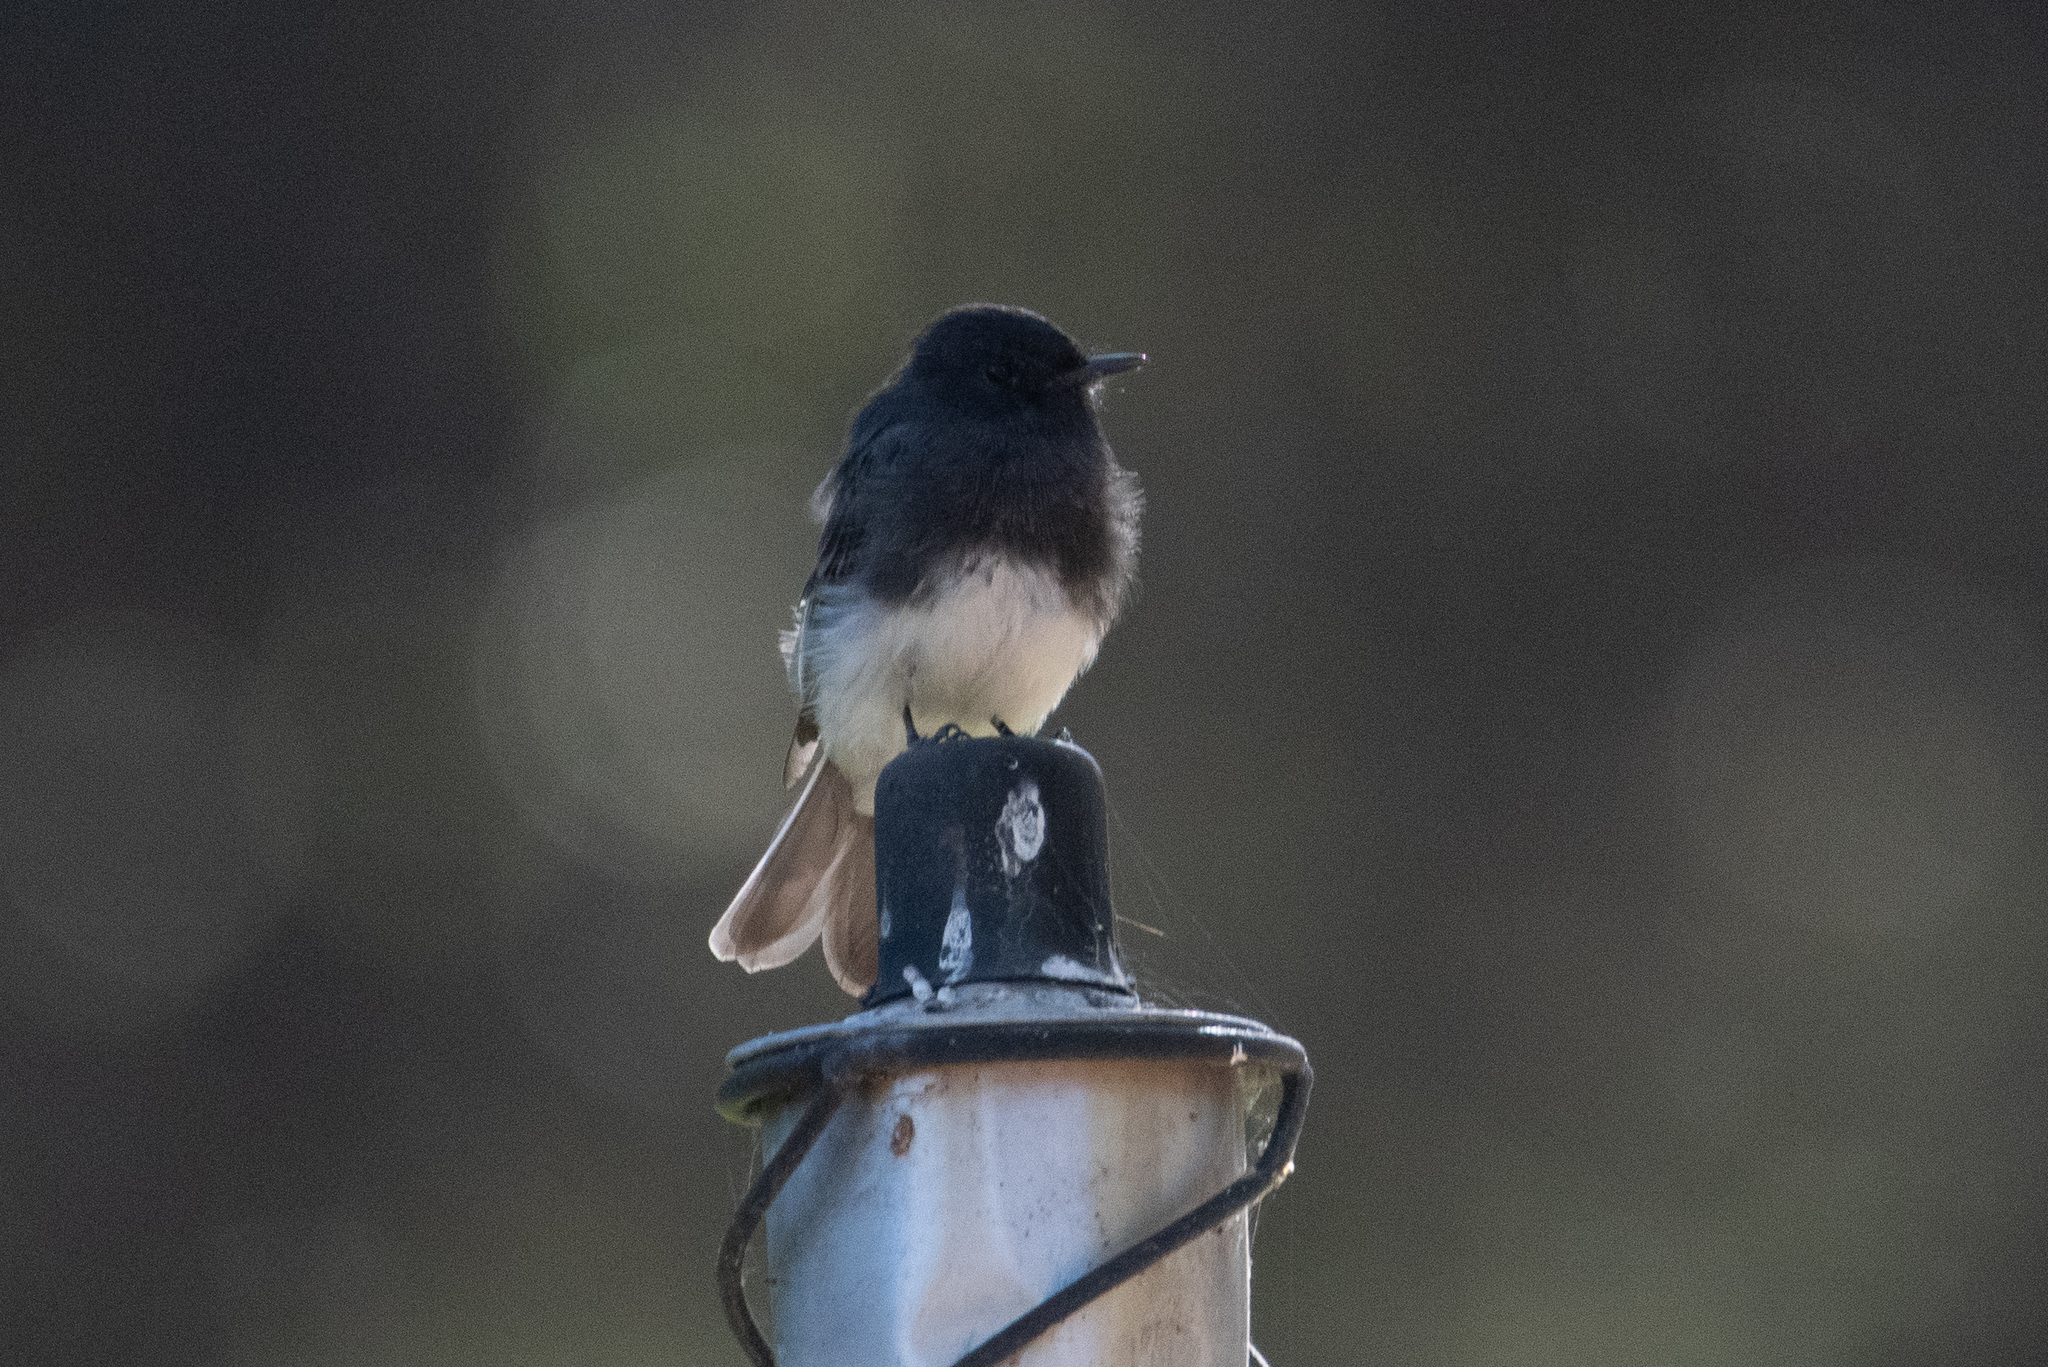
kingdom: Animalia
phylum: Chordata
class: Aves
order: Passeriformes
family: Tyrannidae
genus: Sayornis
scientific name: Sayornis nigricans
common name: Black phoebe
